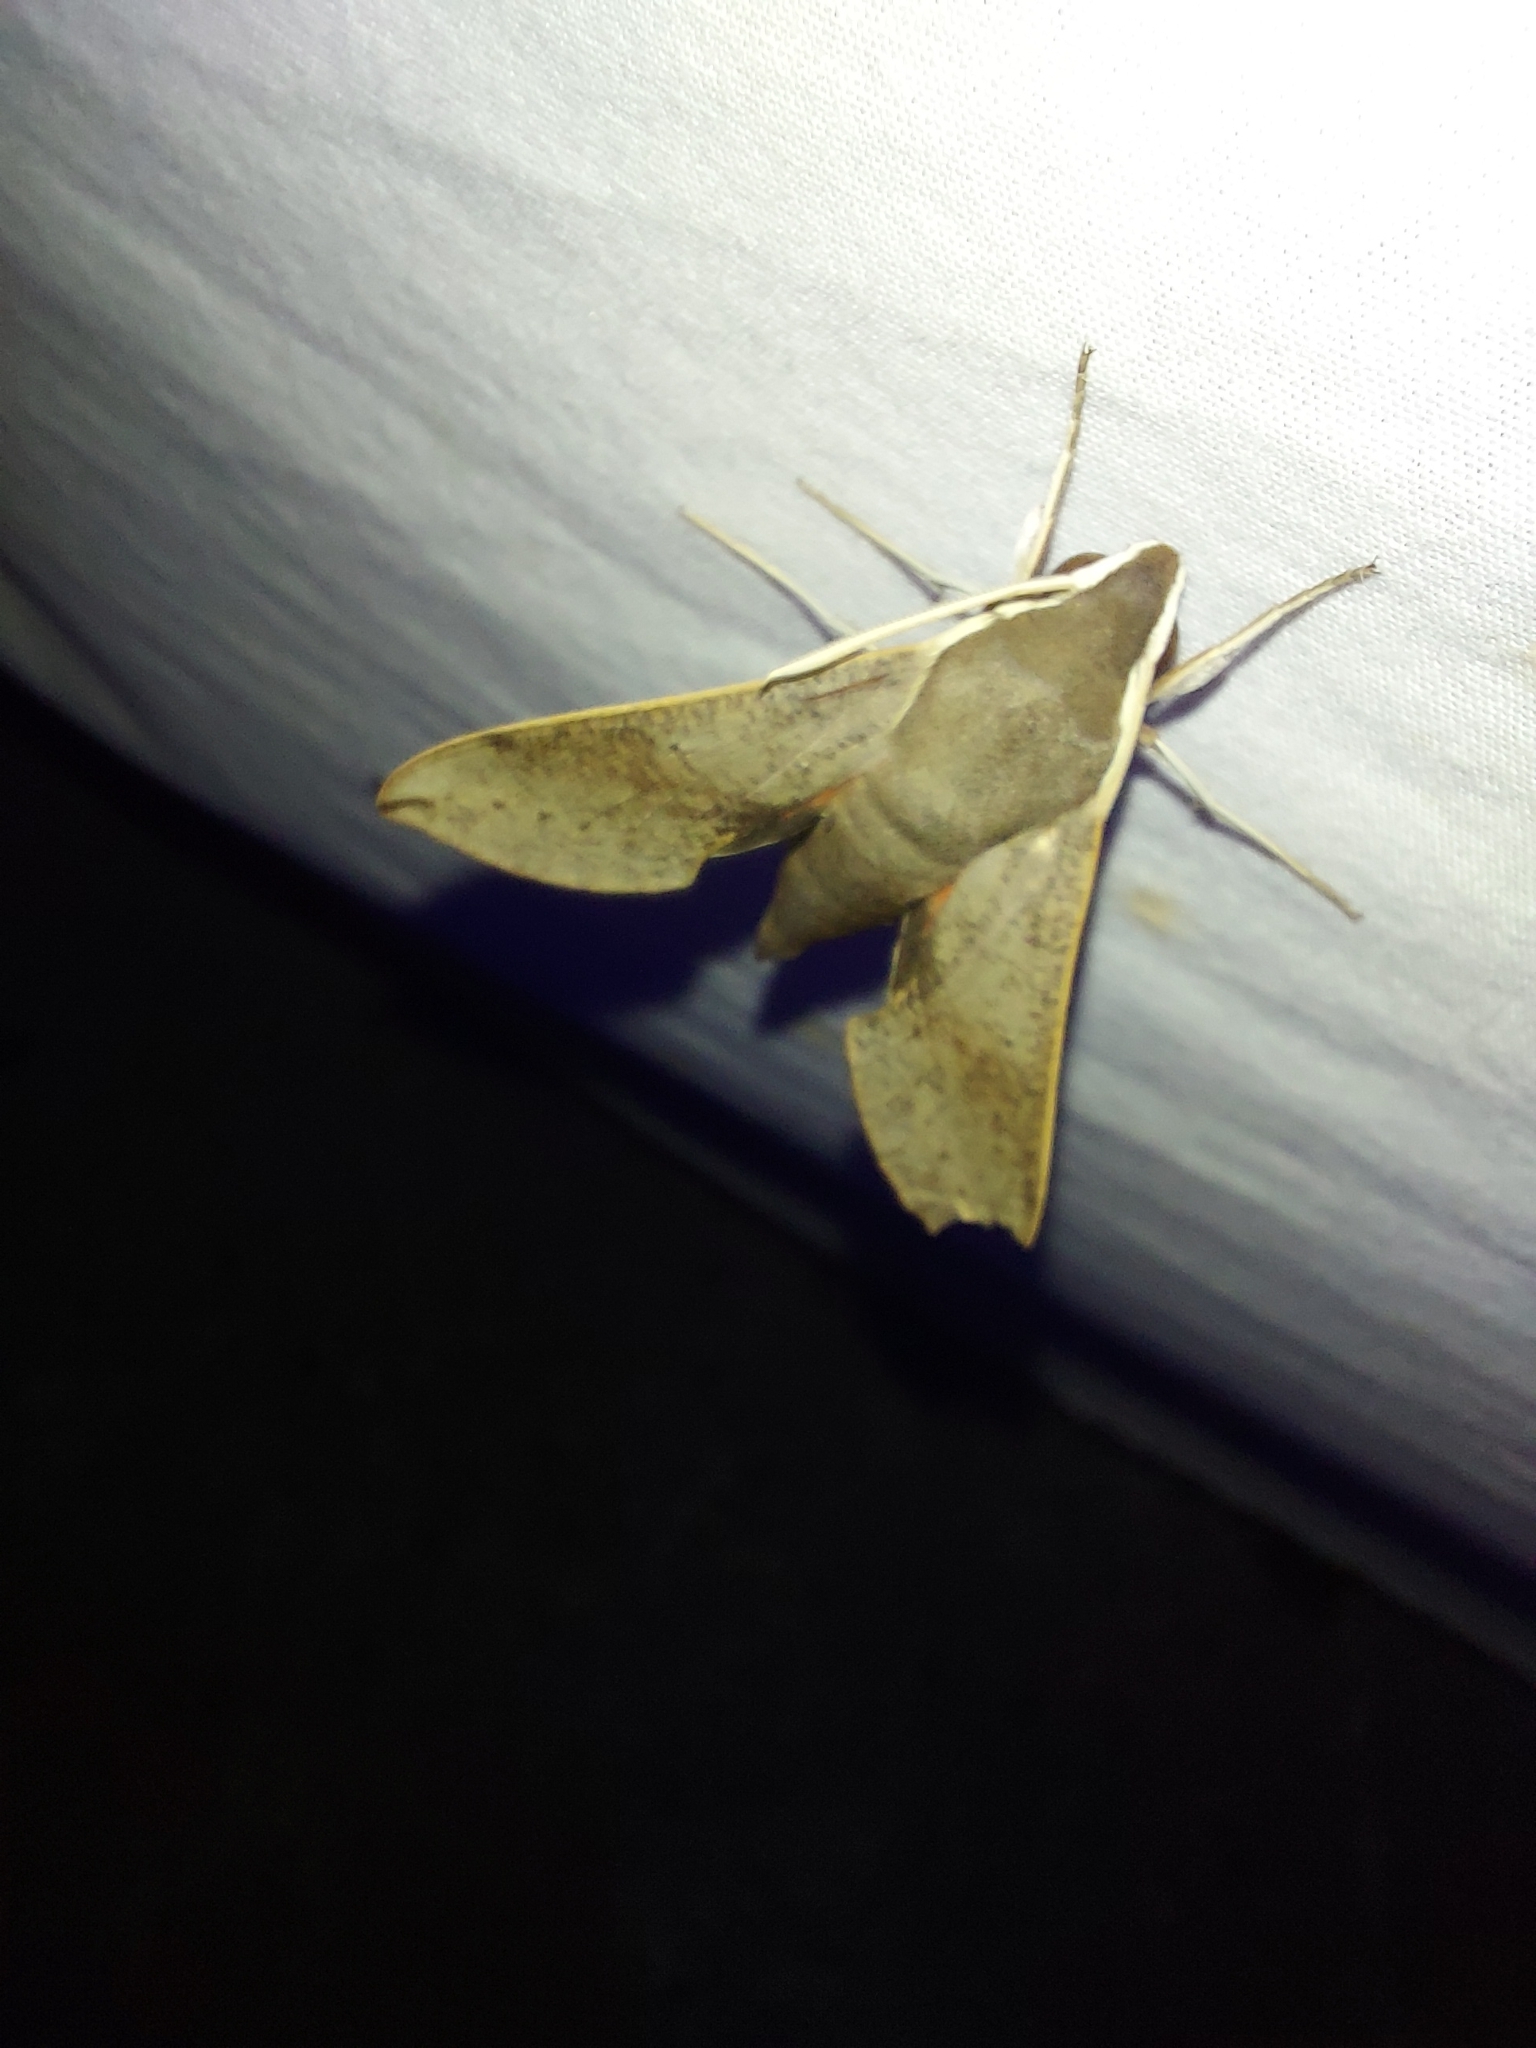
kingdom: Animalia
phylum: Arthropoda
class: Insecta
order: Lepidoptera
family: Sphingidae
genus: Hippotion
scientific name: Hippotion scrofa
